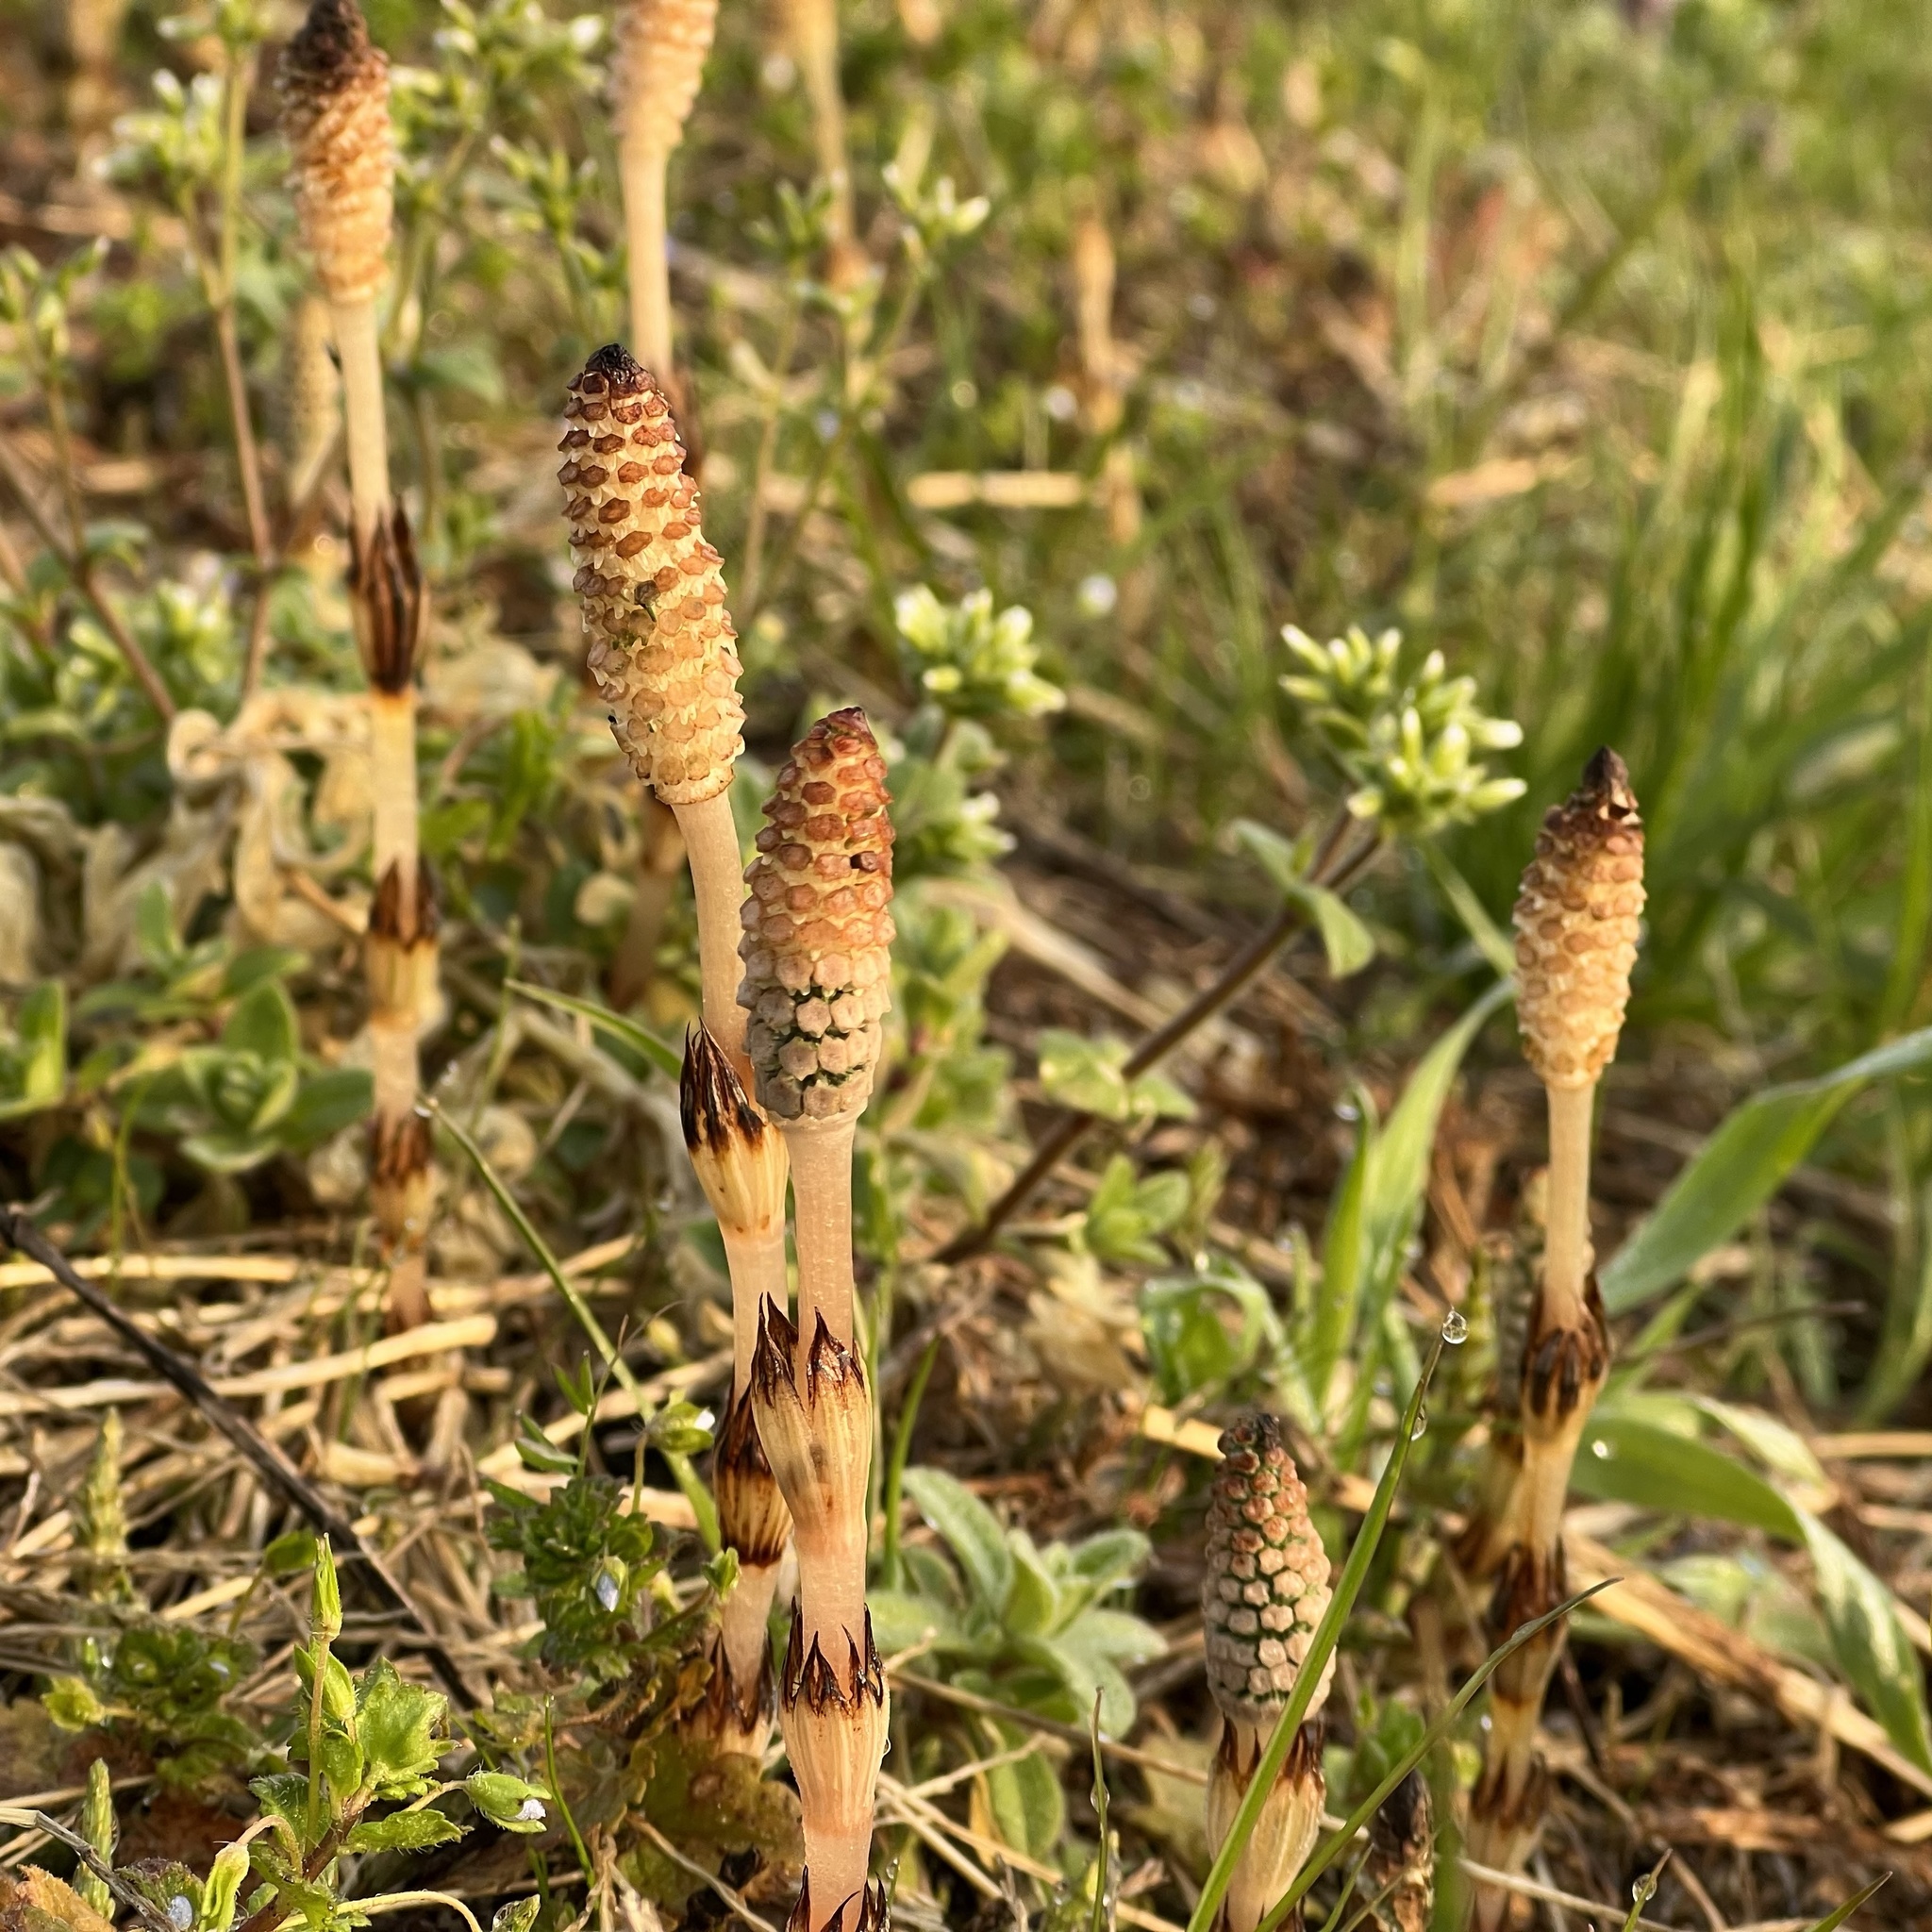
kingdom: Plantae
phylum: Tracheophyta
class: Polypodiopsida
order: Equisetales
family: Equisetaceae
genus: Equisetum
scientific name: Equisetum arvense
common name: Field horsetail
